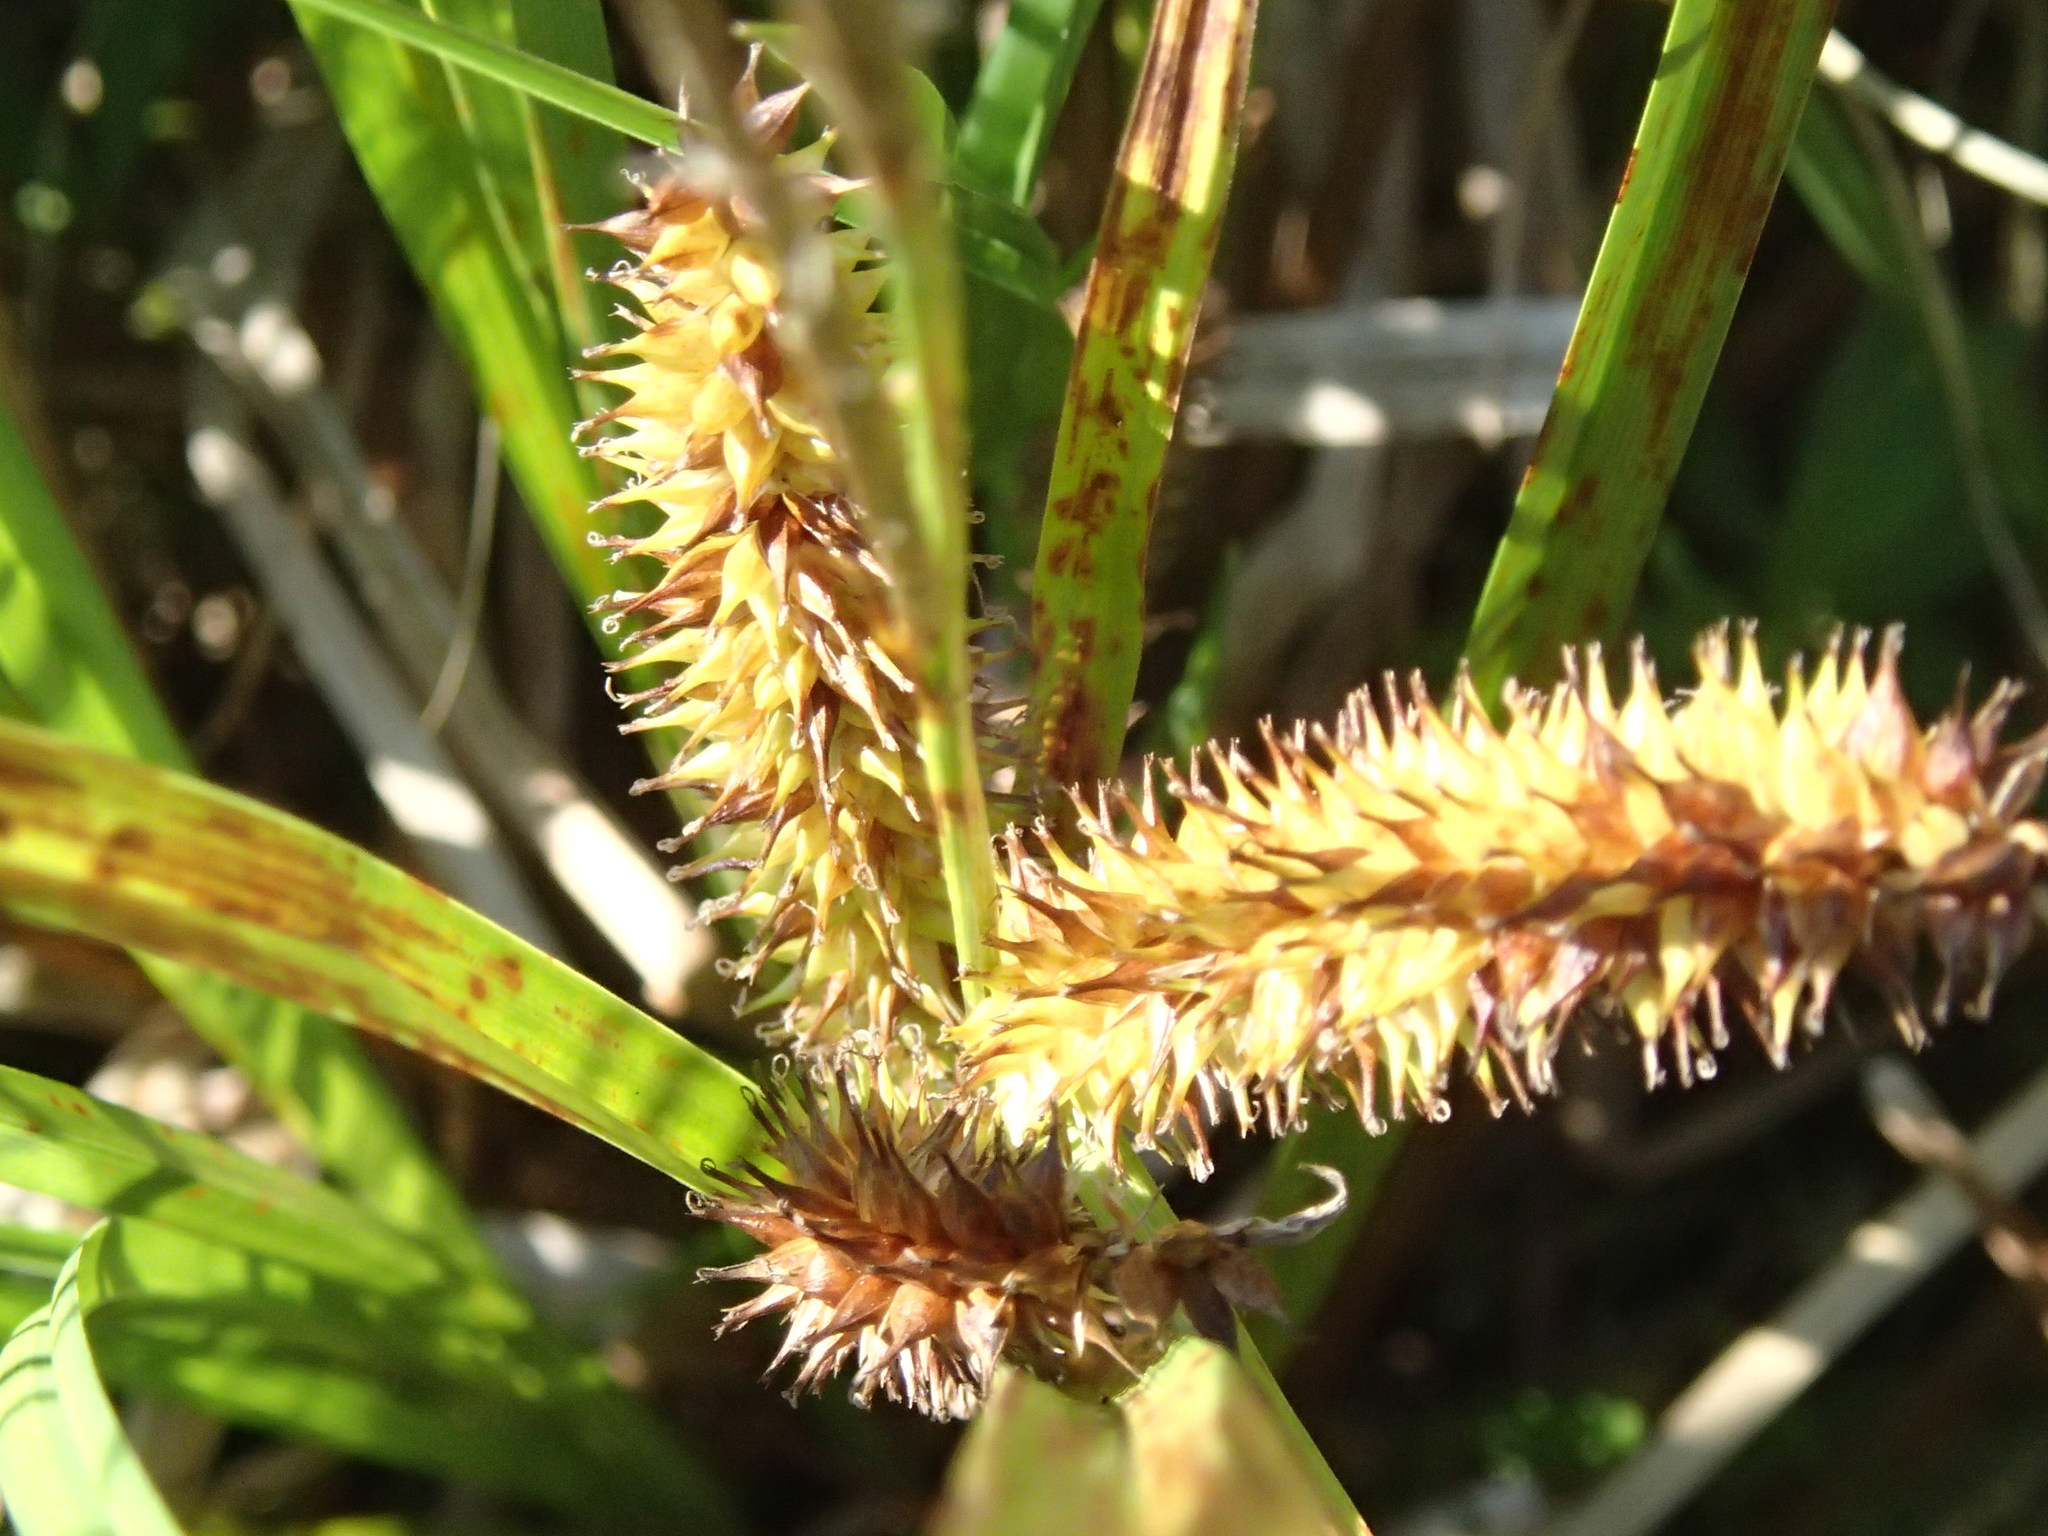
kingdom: Plantae
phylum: Tracheophyta
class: Liliopsida
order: Poales
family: Cyperaceae
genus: Carex
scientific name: Carex utriculata
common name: Beaked sedge
